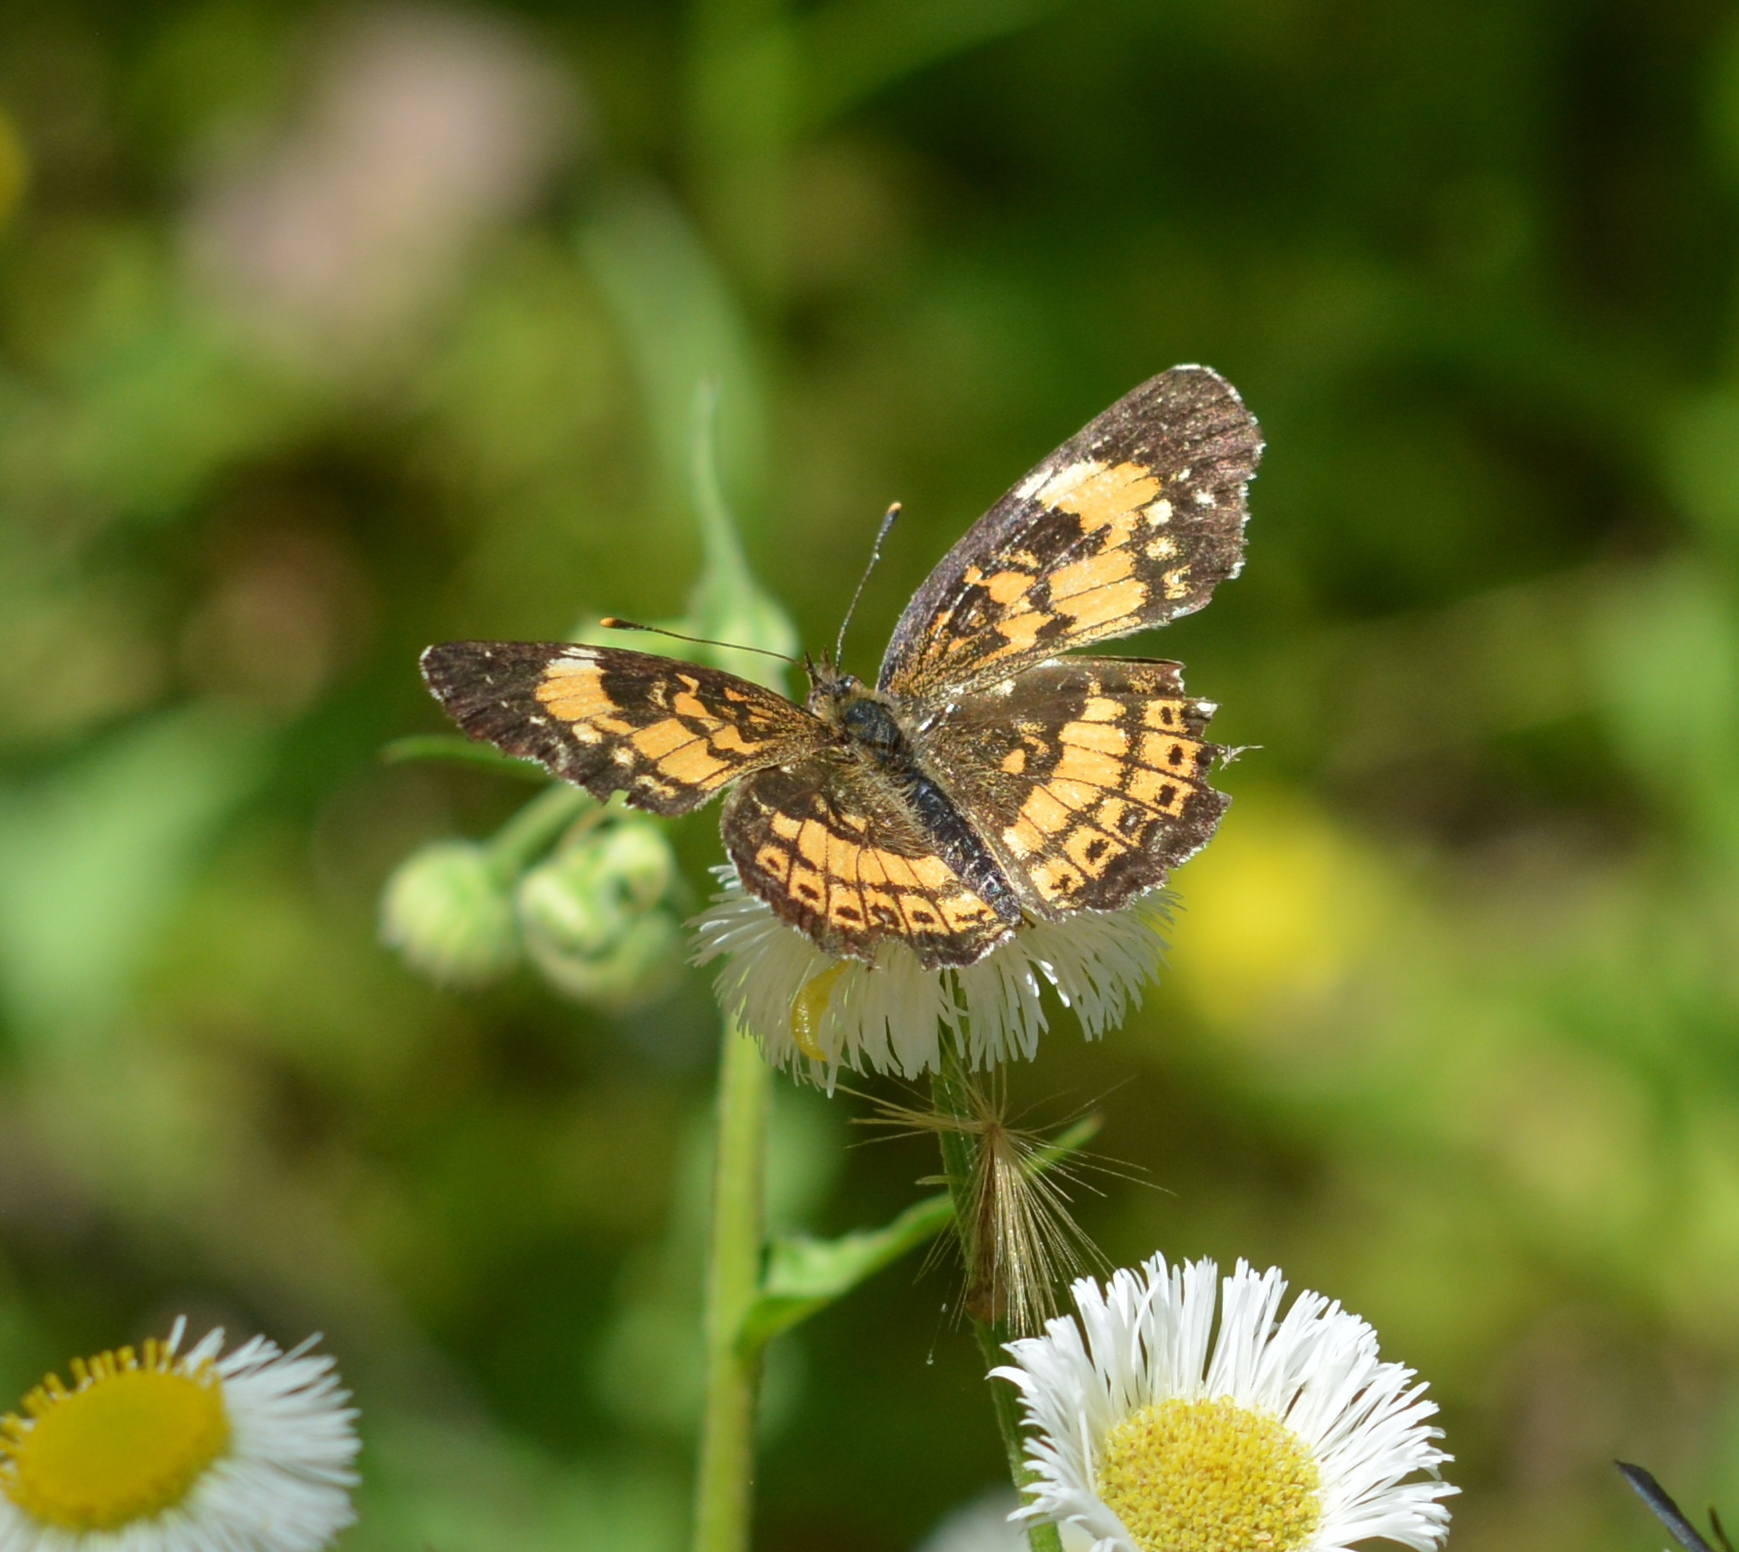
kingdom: Animalia
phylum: Arthropoda
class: Insecta
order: Lepidoptera
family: Nymphalidae
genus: Chlosyne
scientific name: Chlosyne nycteis
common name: Silvery checkerspot
